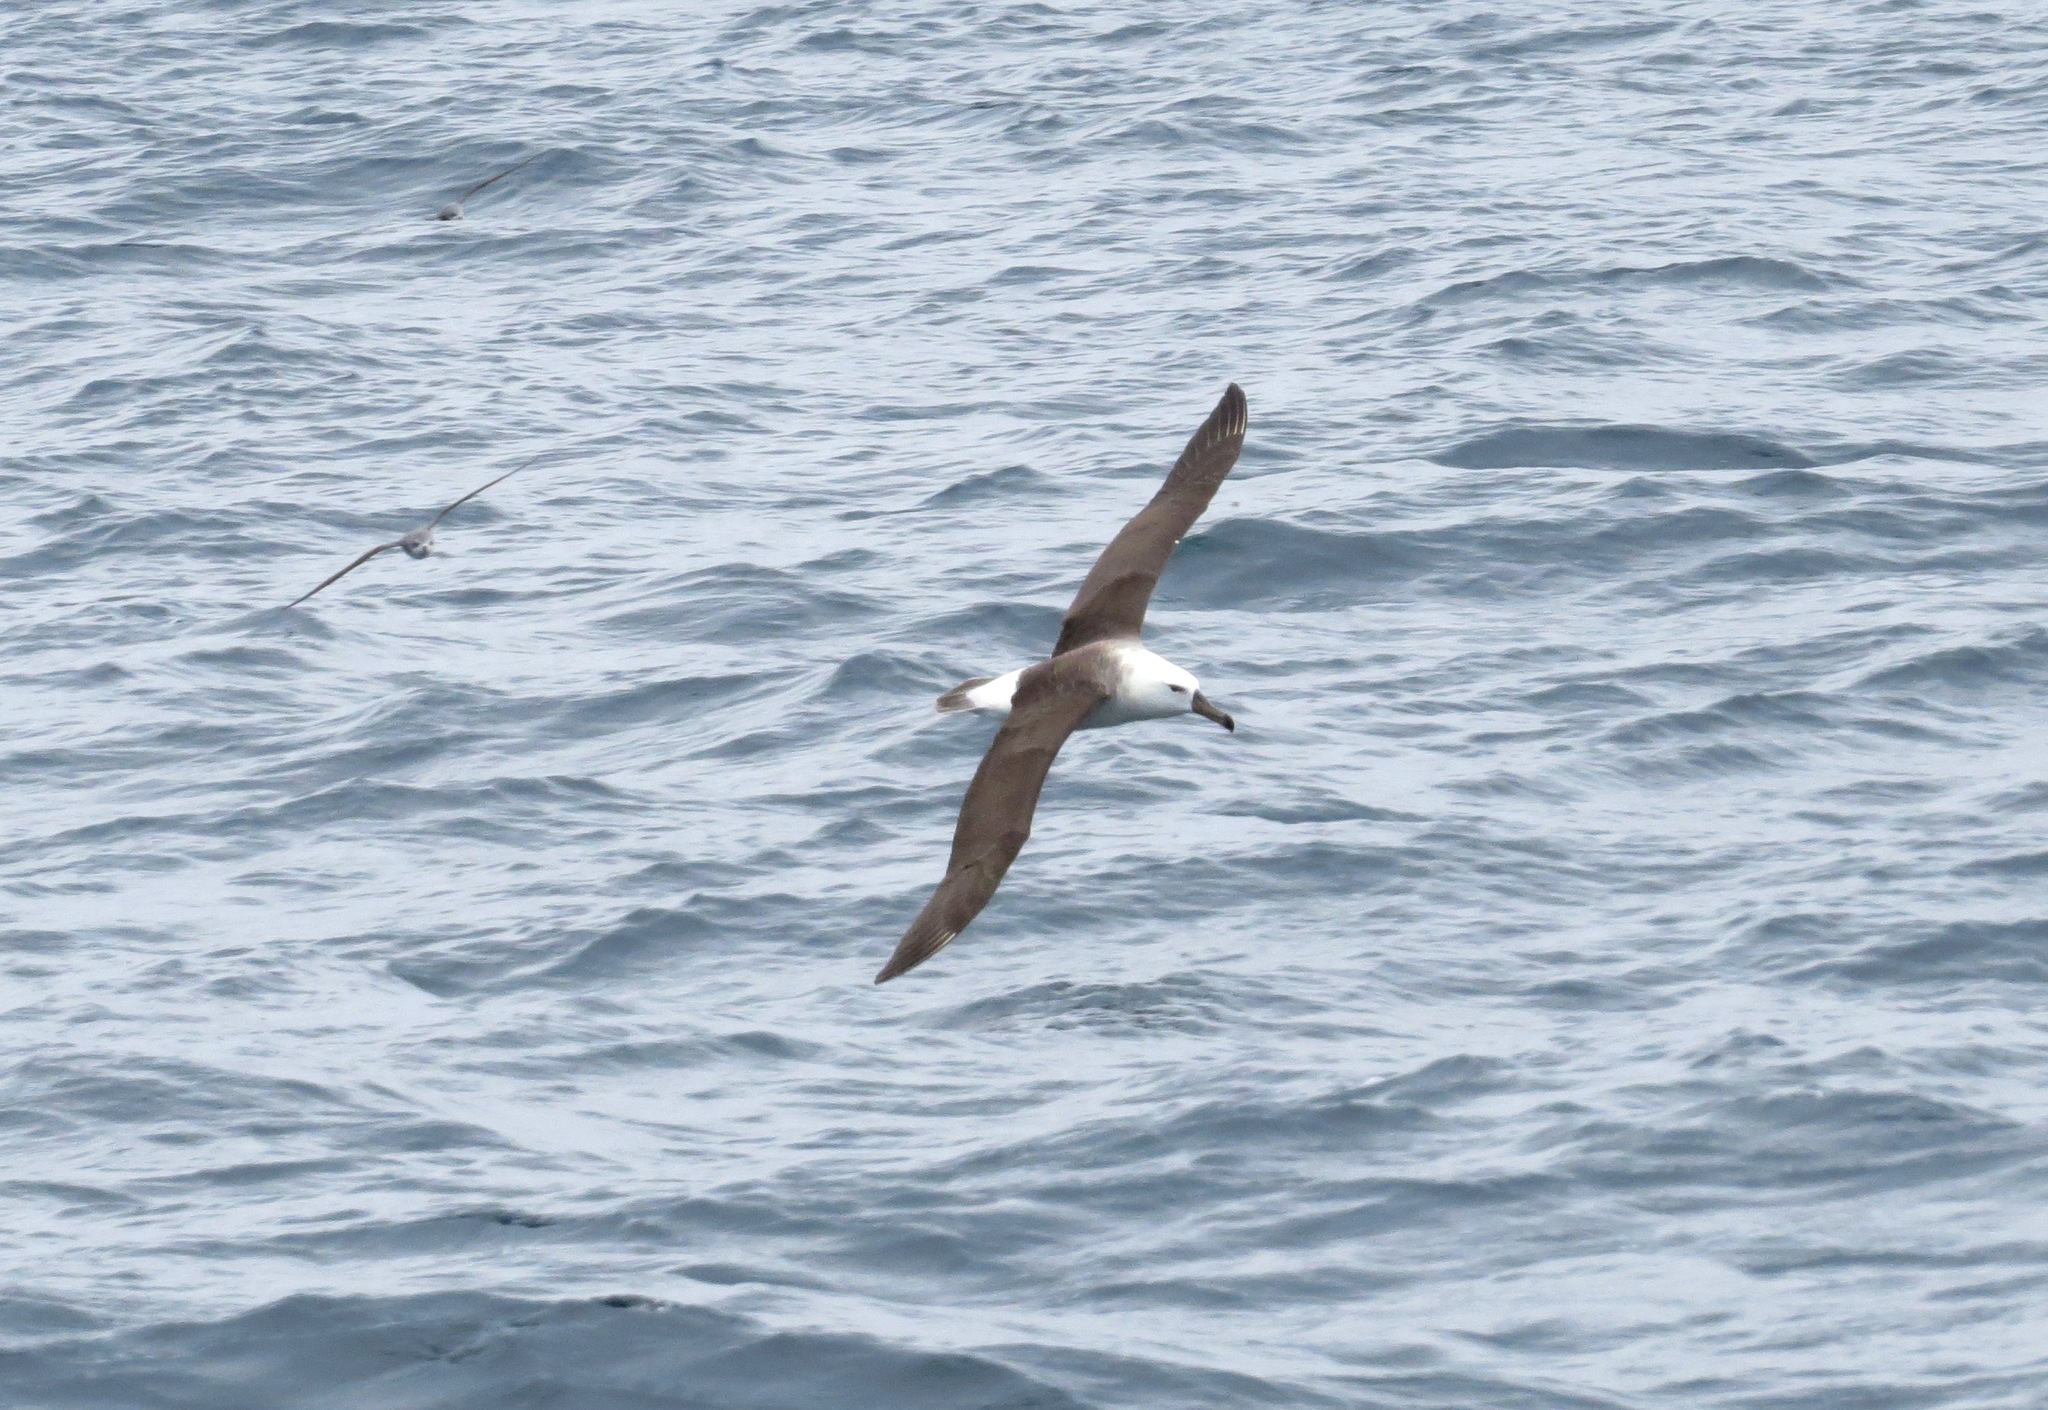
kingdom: Animalia
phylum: Chordata
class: Aves
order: Procellariiformes
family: Diomedeidae
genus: Thalassarche
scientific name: Thalassarche melanophris
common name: Black-browed albatross
